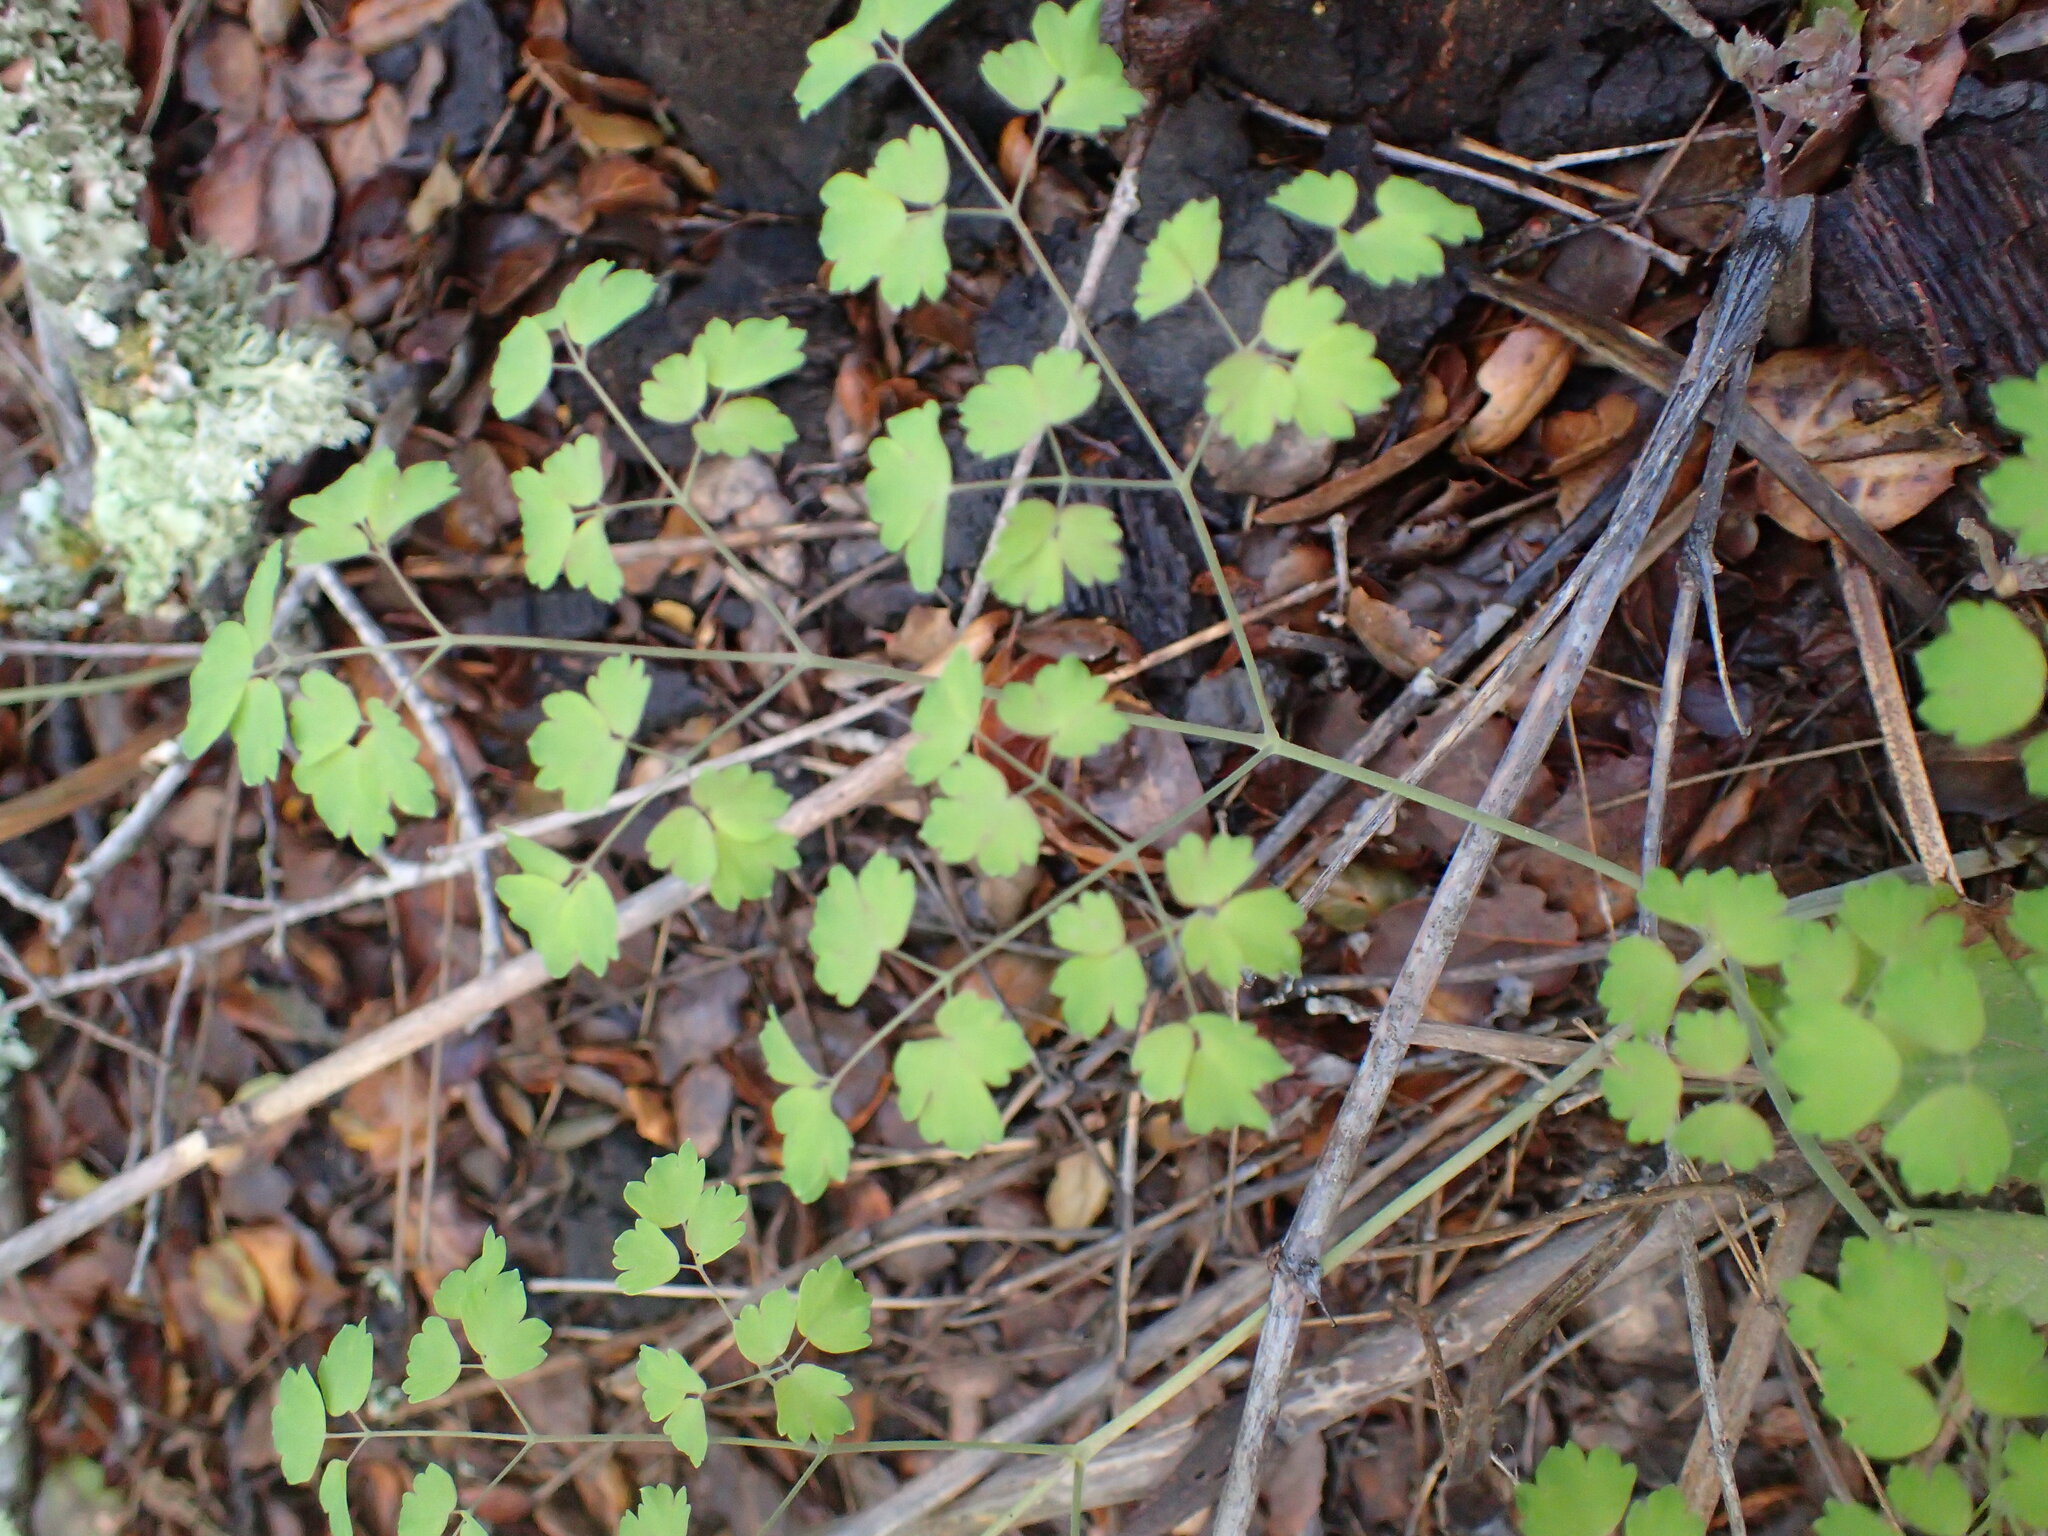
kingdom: Plantae
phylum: Tracheophyta
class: Magnoliopsida
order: Ranunculales
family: Ranunculaceae
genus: Thalictrum
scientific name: Thalictrum fendleri
